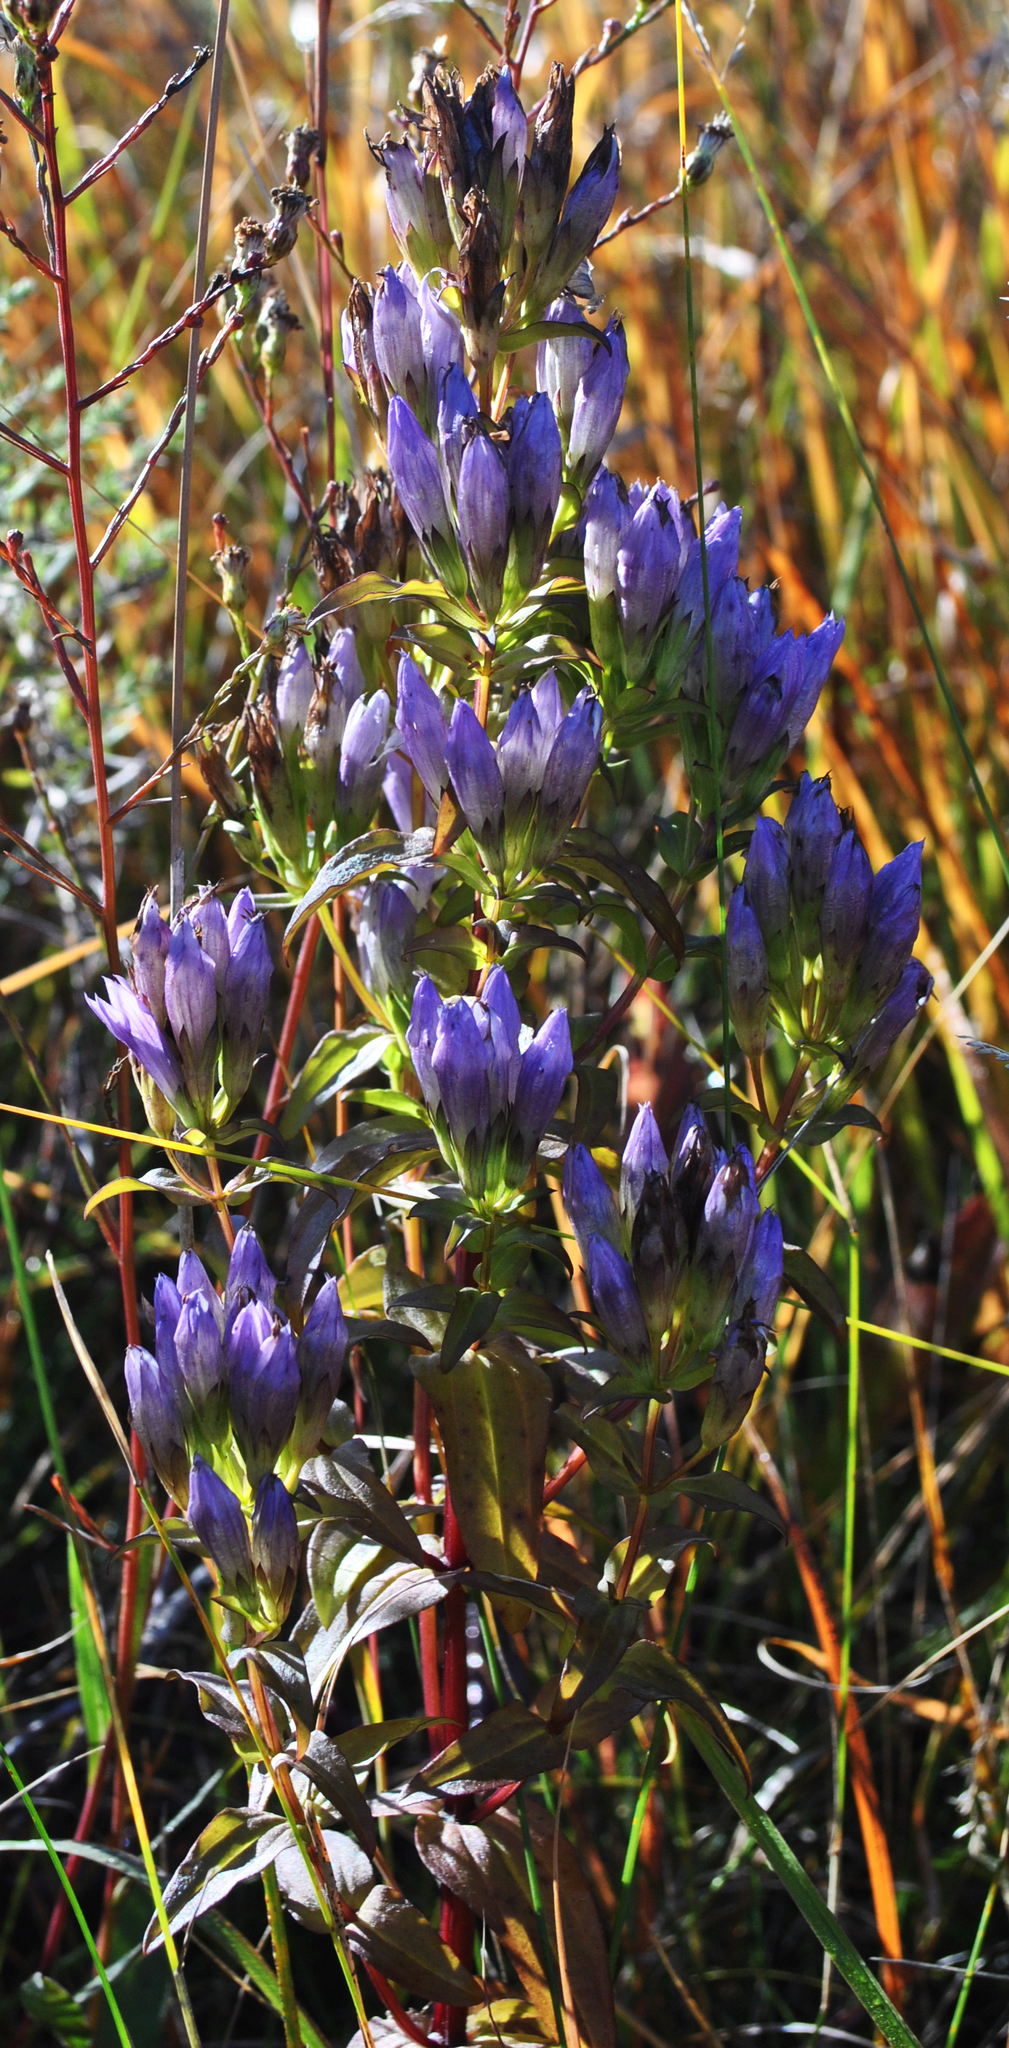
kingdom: Plantae
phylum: Tracheophyta
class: Magnoliopsida
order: Gentianales
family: Gentianaceae
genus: Gentianella
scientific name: Gentianella quinquefolia
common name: Agueweed
